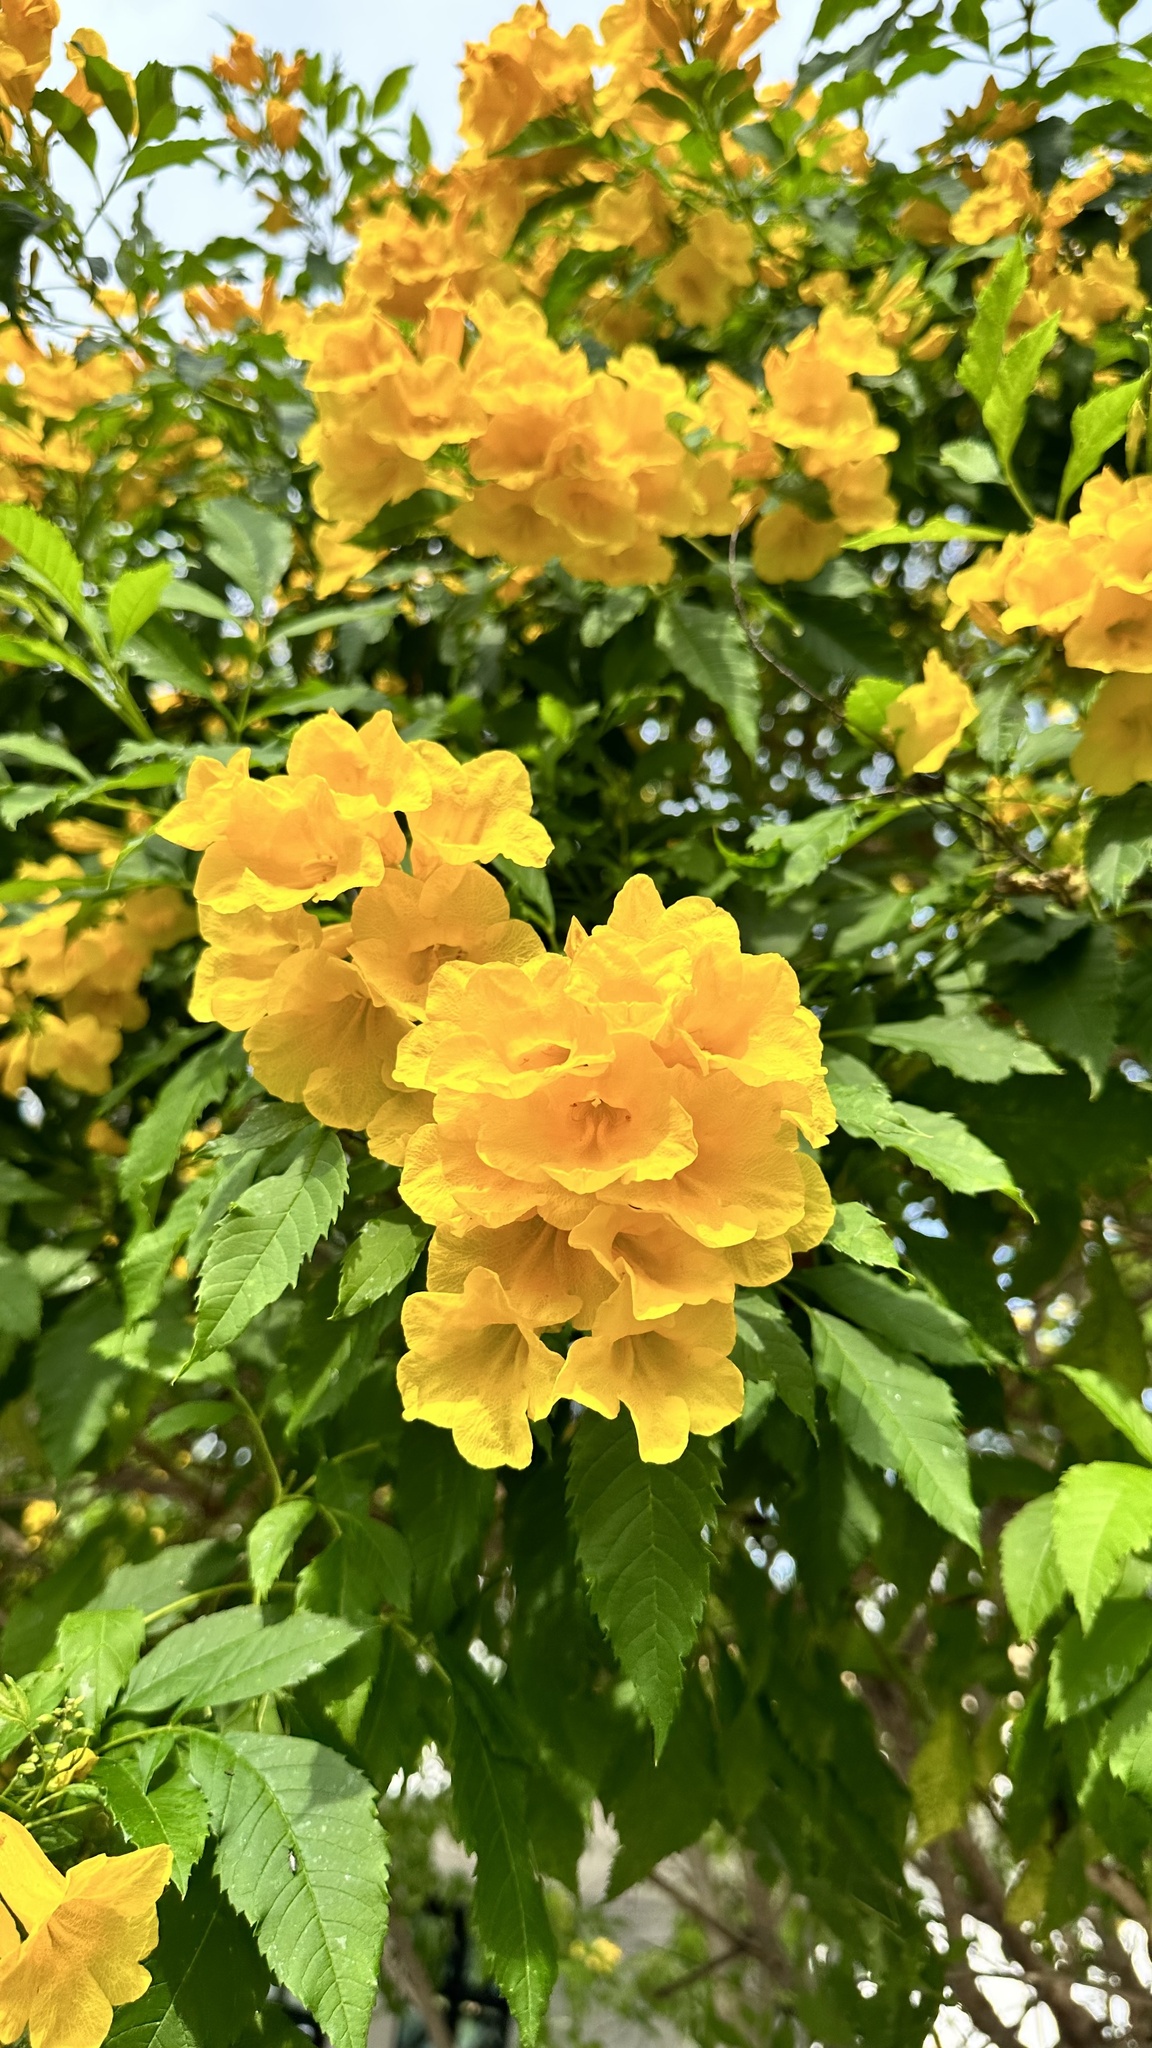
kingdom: Plantae
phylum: Tracheophyta
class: Magnoliopsida
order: Lamiales
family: Bignoniaceae
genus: Tecoma
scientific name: Tecoma stans
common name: Yellow trumpetbush
